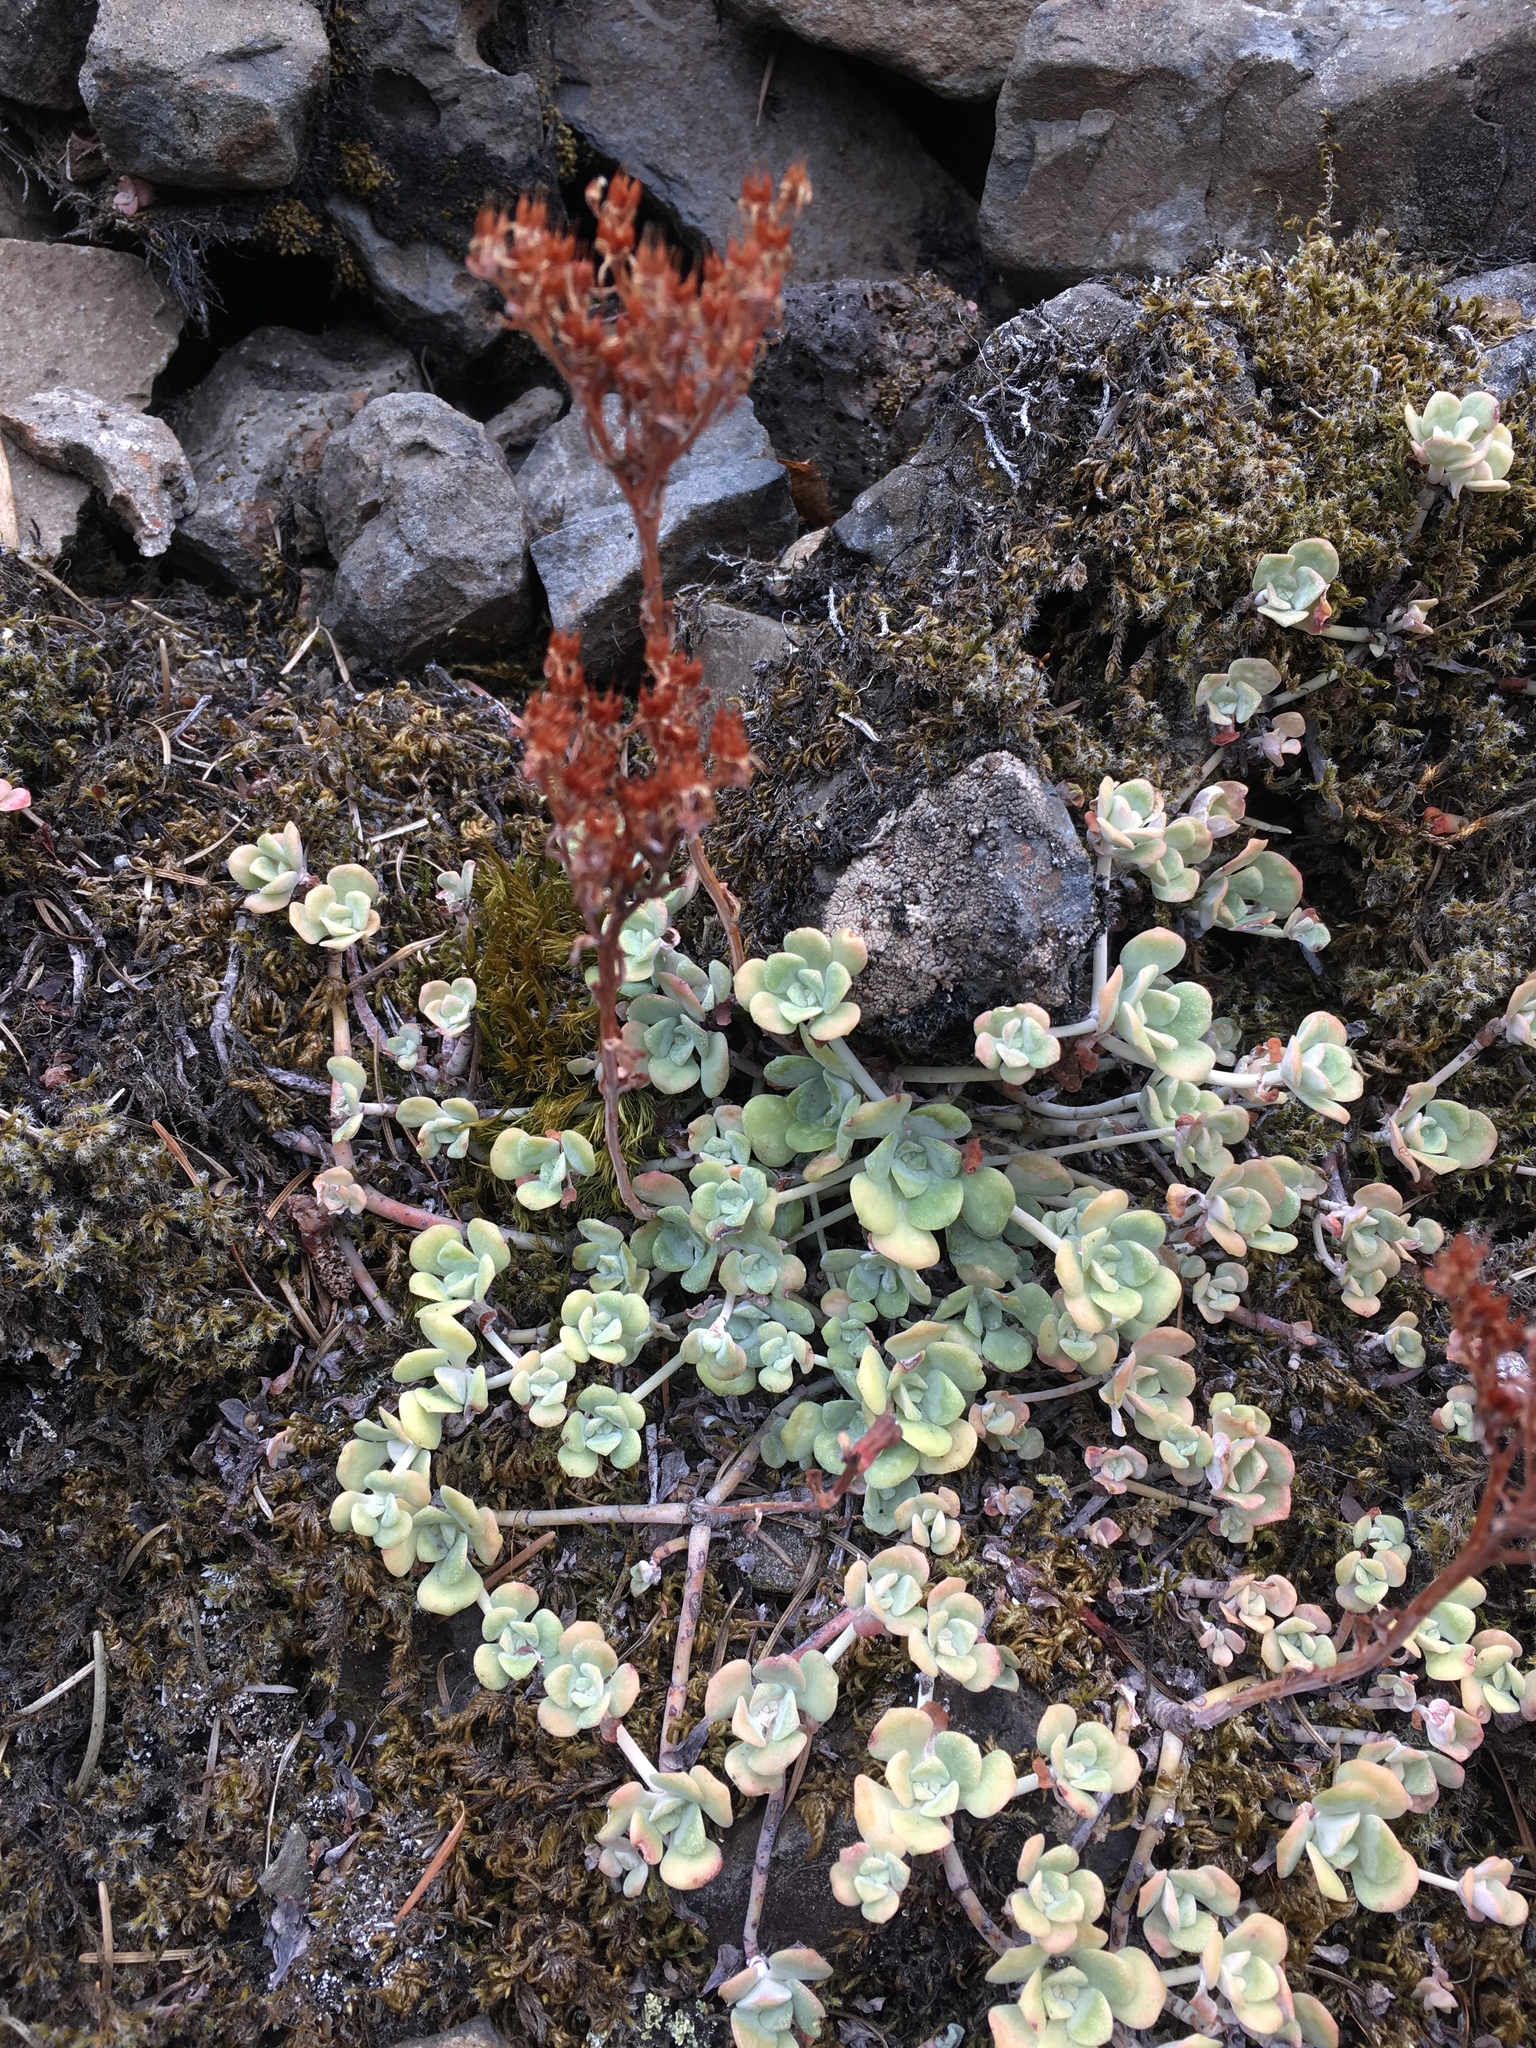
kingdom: Plantae
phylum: Tracheophyta
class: Magnoliopsida
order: Saxifragales
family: Crassulaceae
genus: Sedum
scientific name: Sedum spathulifolium
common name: Colorado stonecrop
